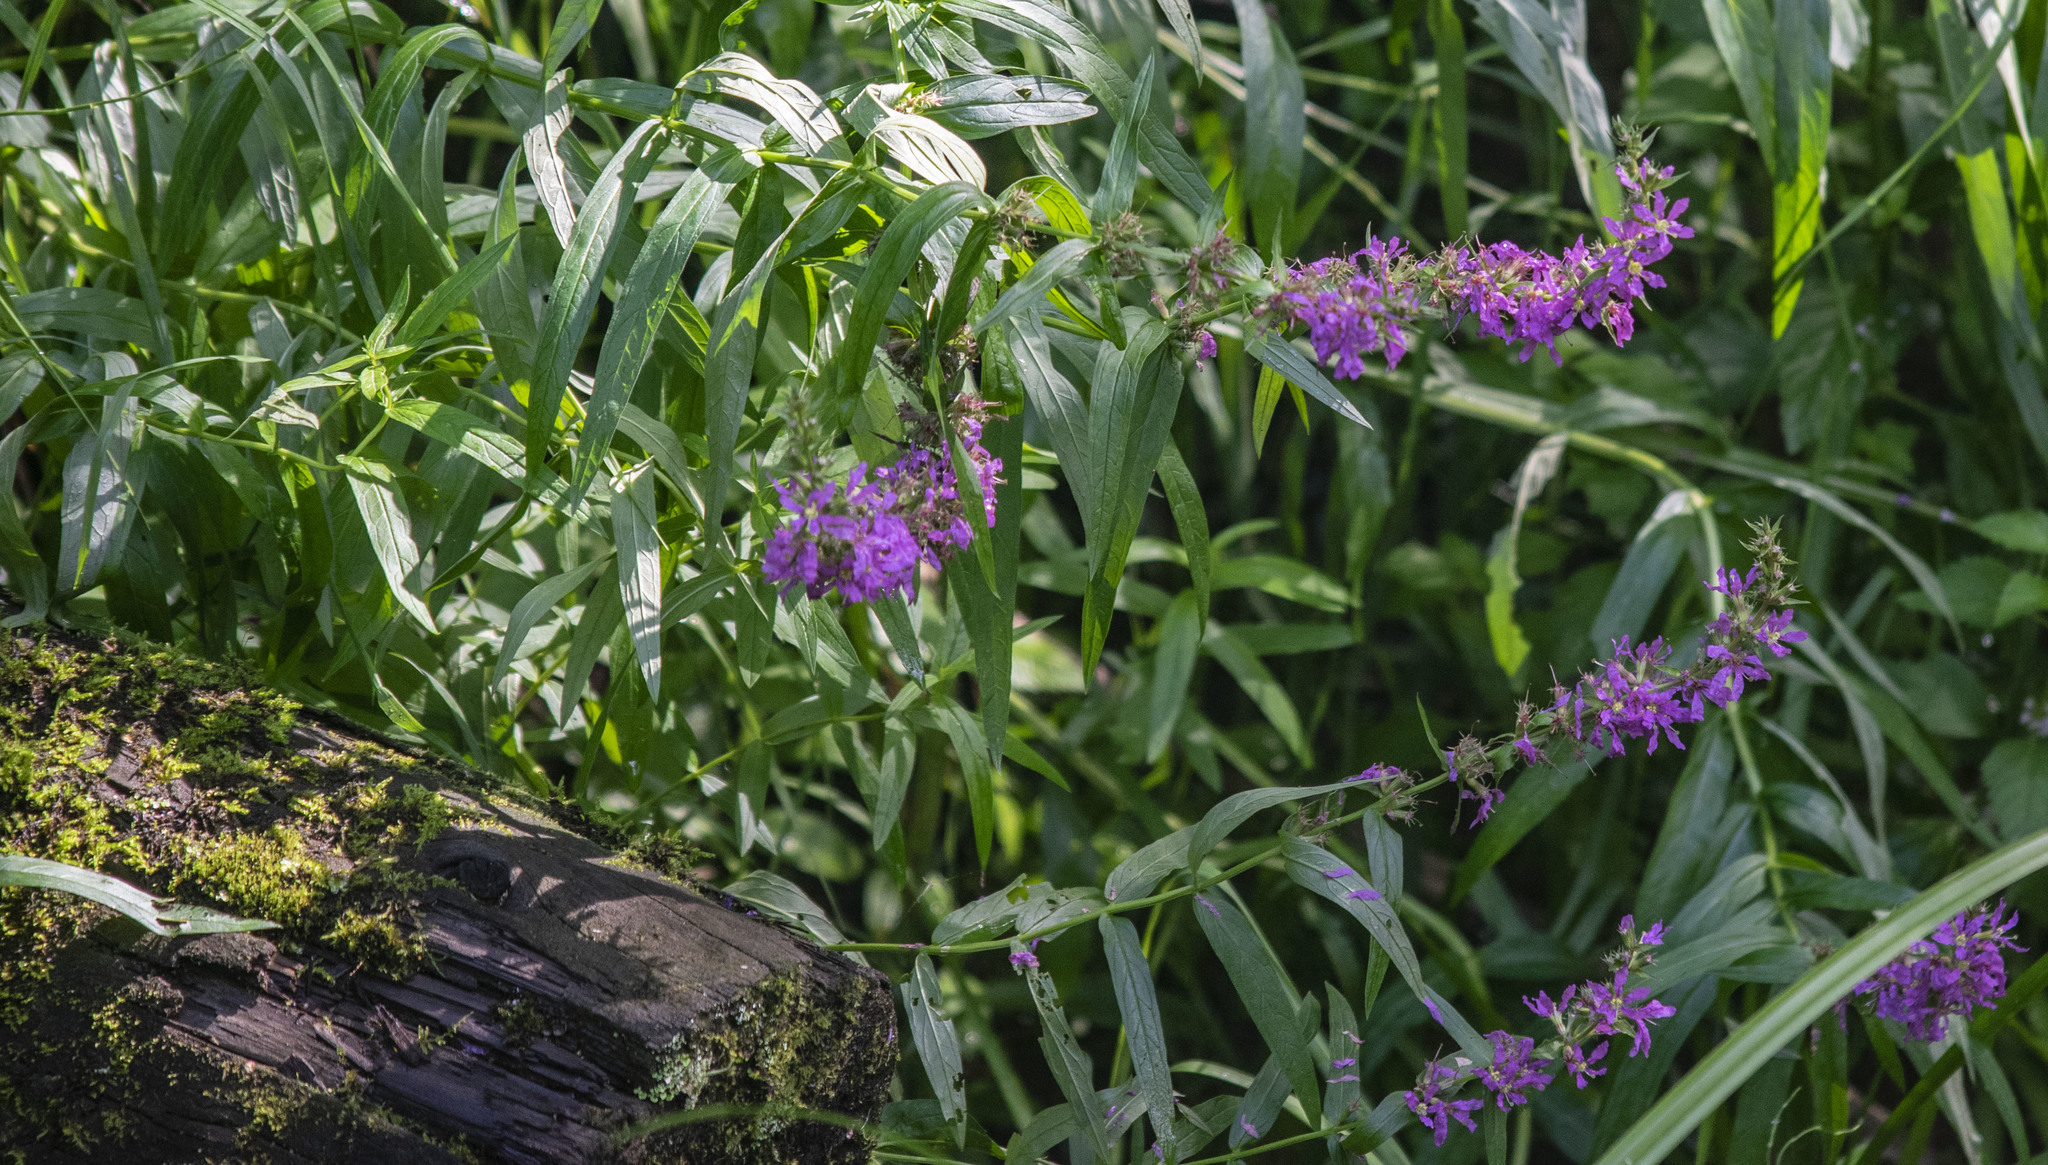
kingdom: Plantae
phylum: Tracheophyta
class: Magnoliopsida
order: Myrtales
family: Lythraceae
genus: Lythrum
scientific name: Lythrum salicaria
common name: Purple loosestrife
